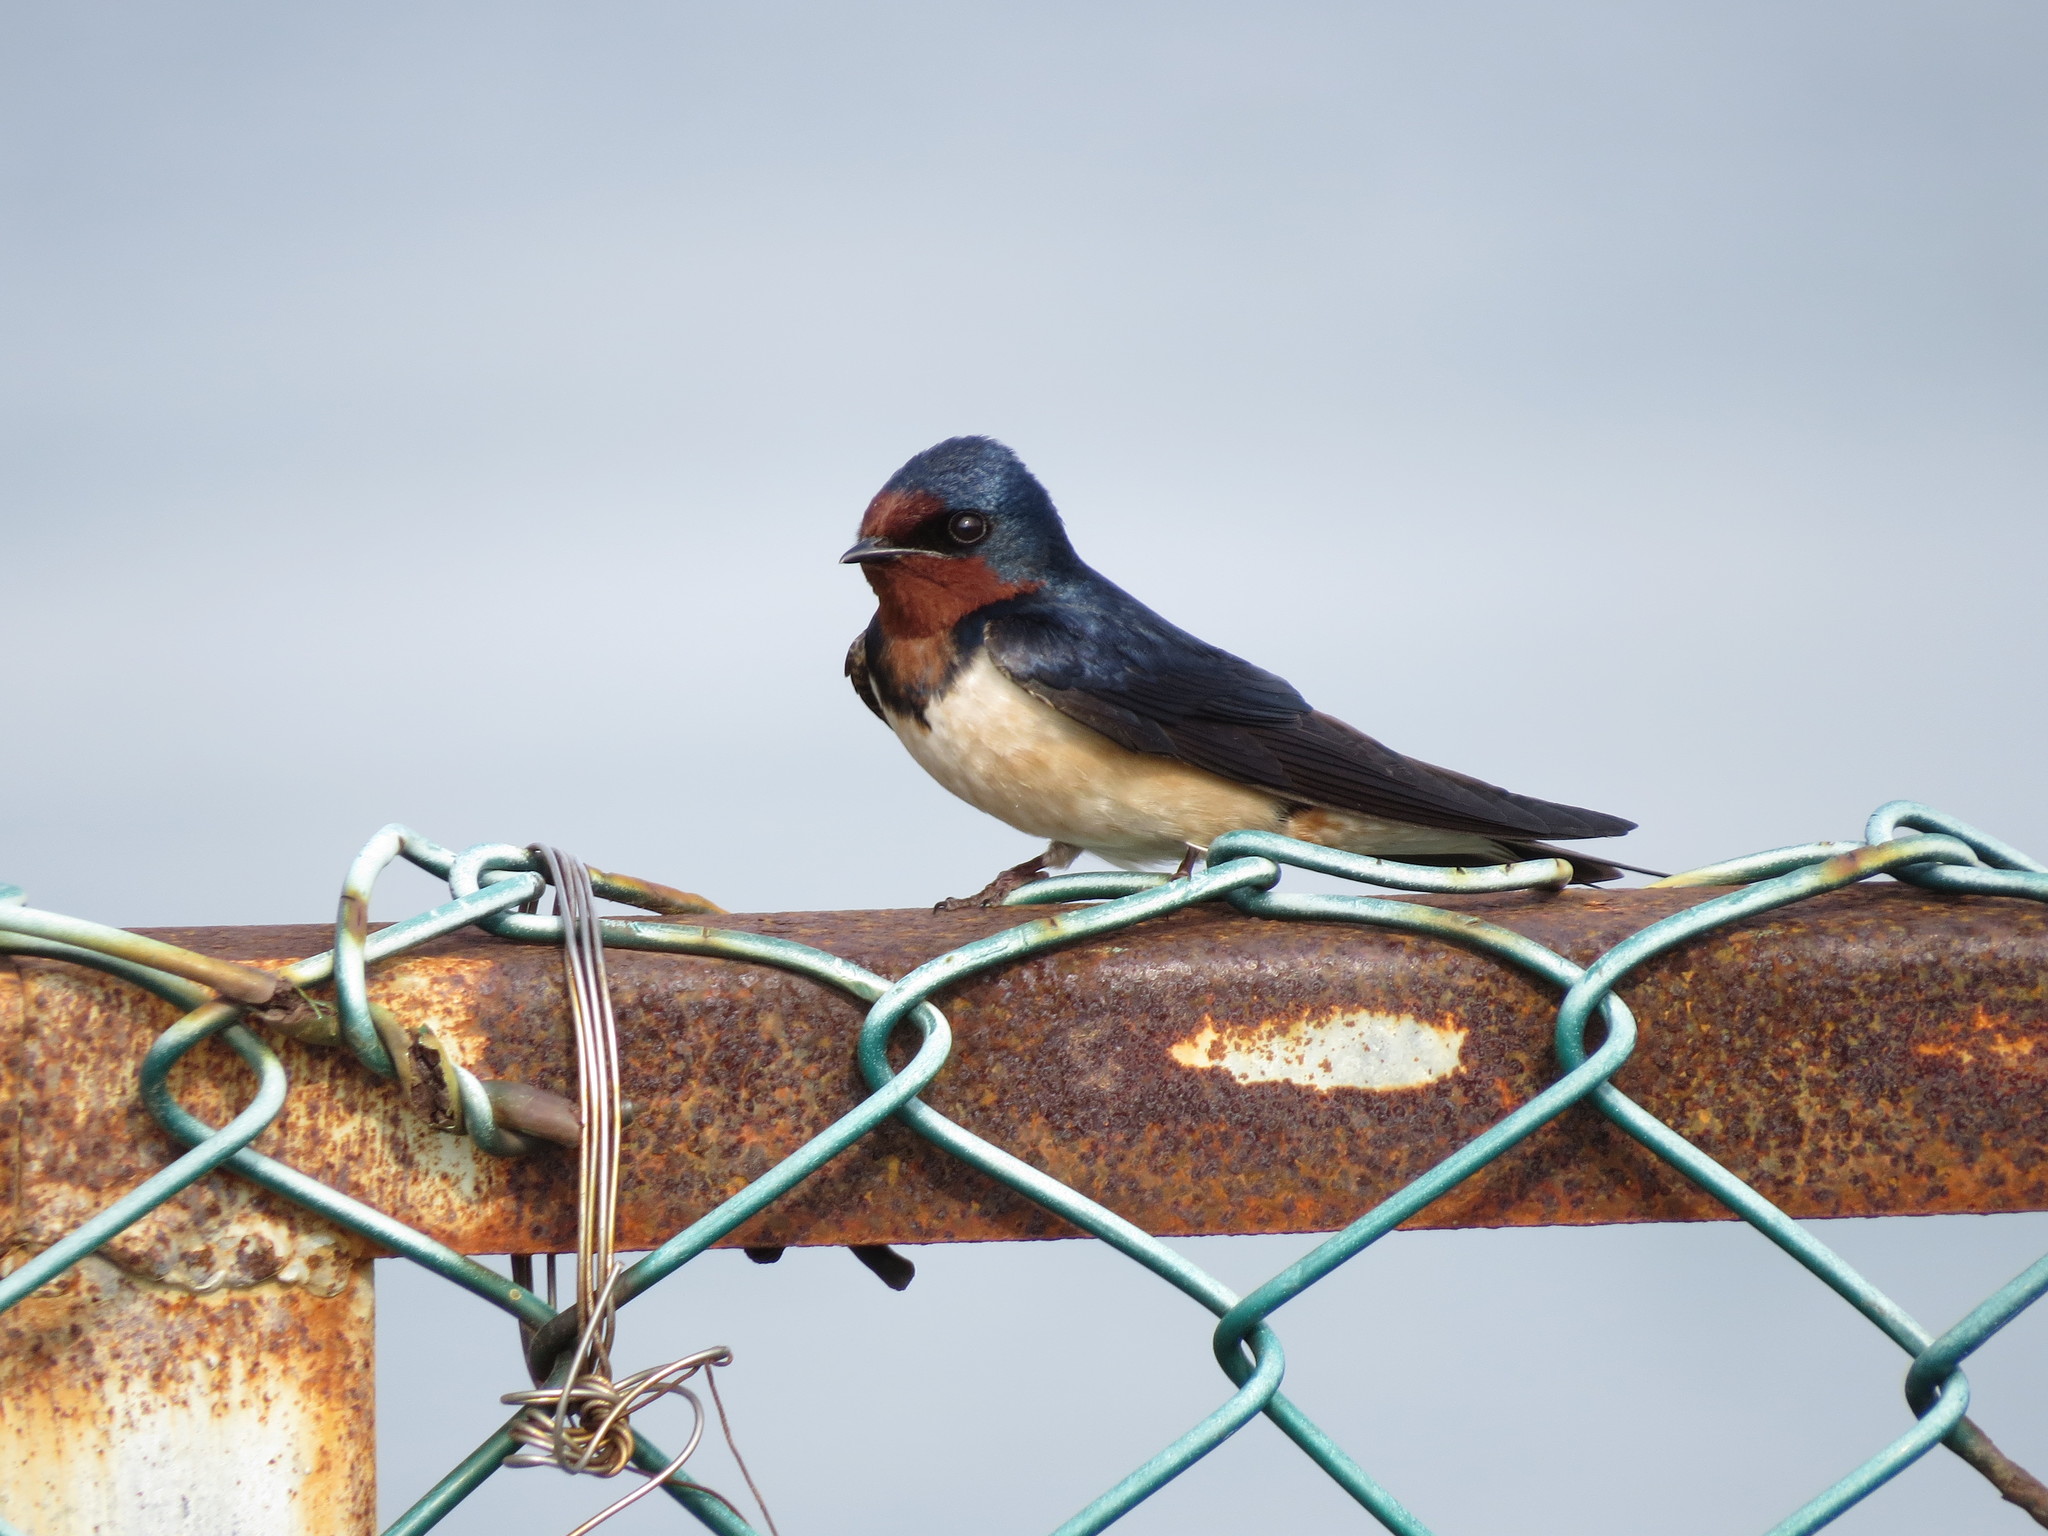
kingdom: Animalia
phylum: Chordata
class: Aves
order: Passeriformes
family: Hirundinidae
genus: Hirundo
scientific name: Hirundo rustica
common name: Barn swallow
